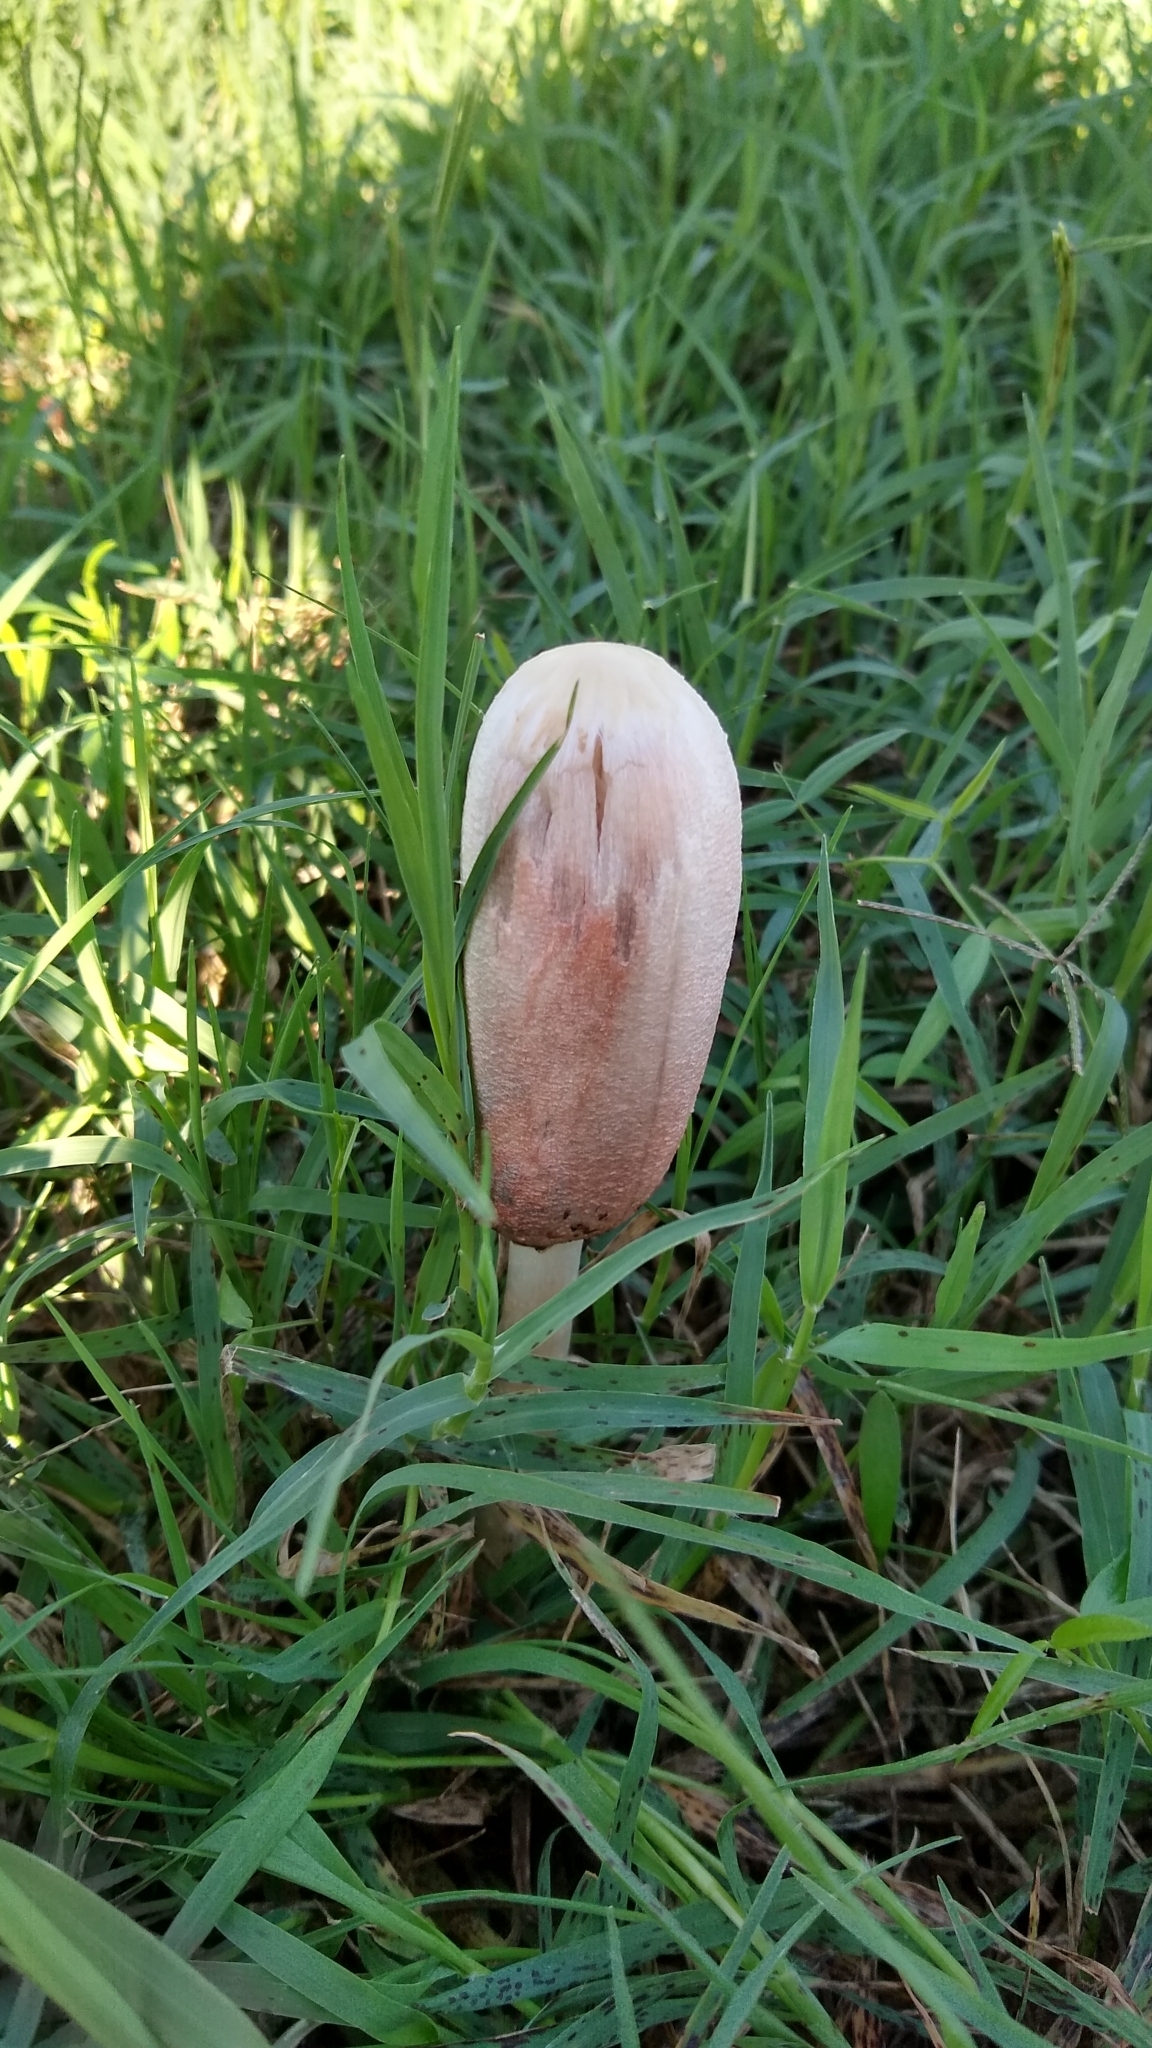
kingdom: Fungi
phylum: Basidiomycota
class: Agaricomycetes
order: Agaricales
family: Agaricaceae
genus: Coprinus
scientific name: Coprinus comatus
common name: Lawyer's wig
